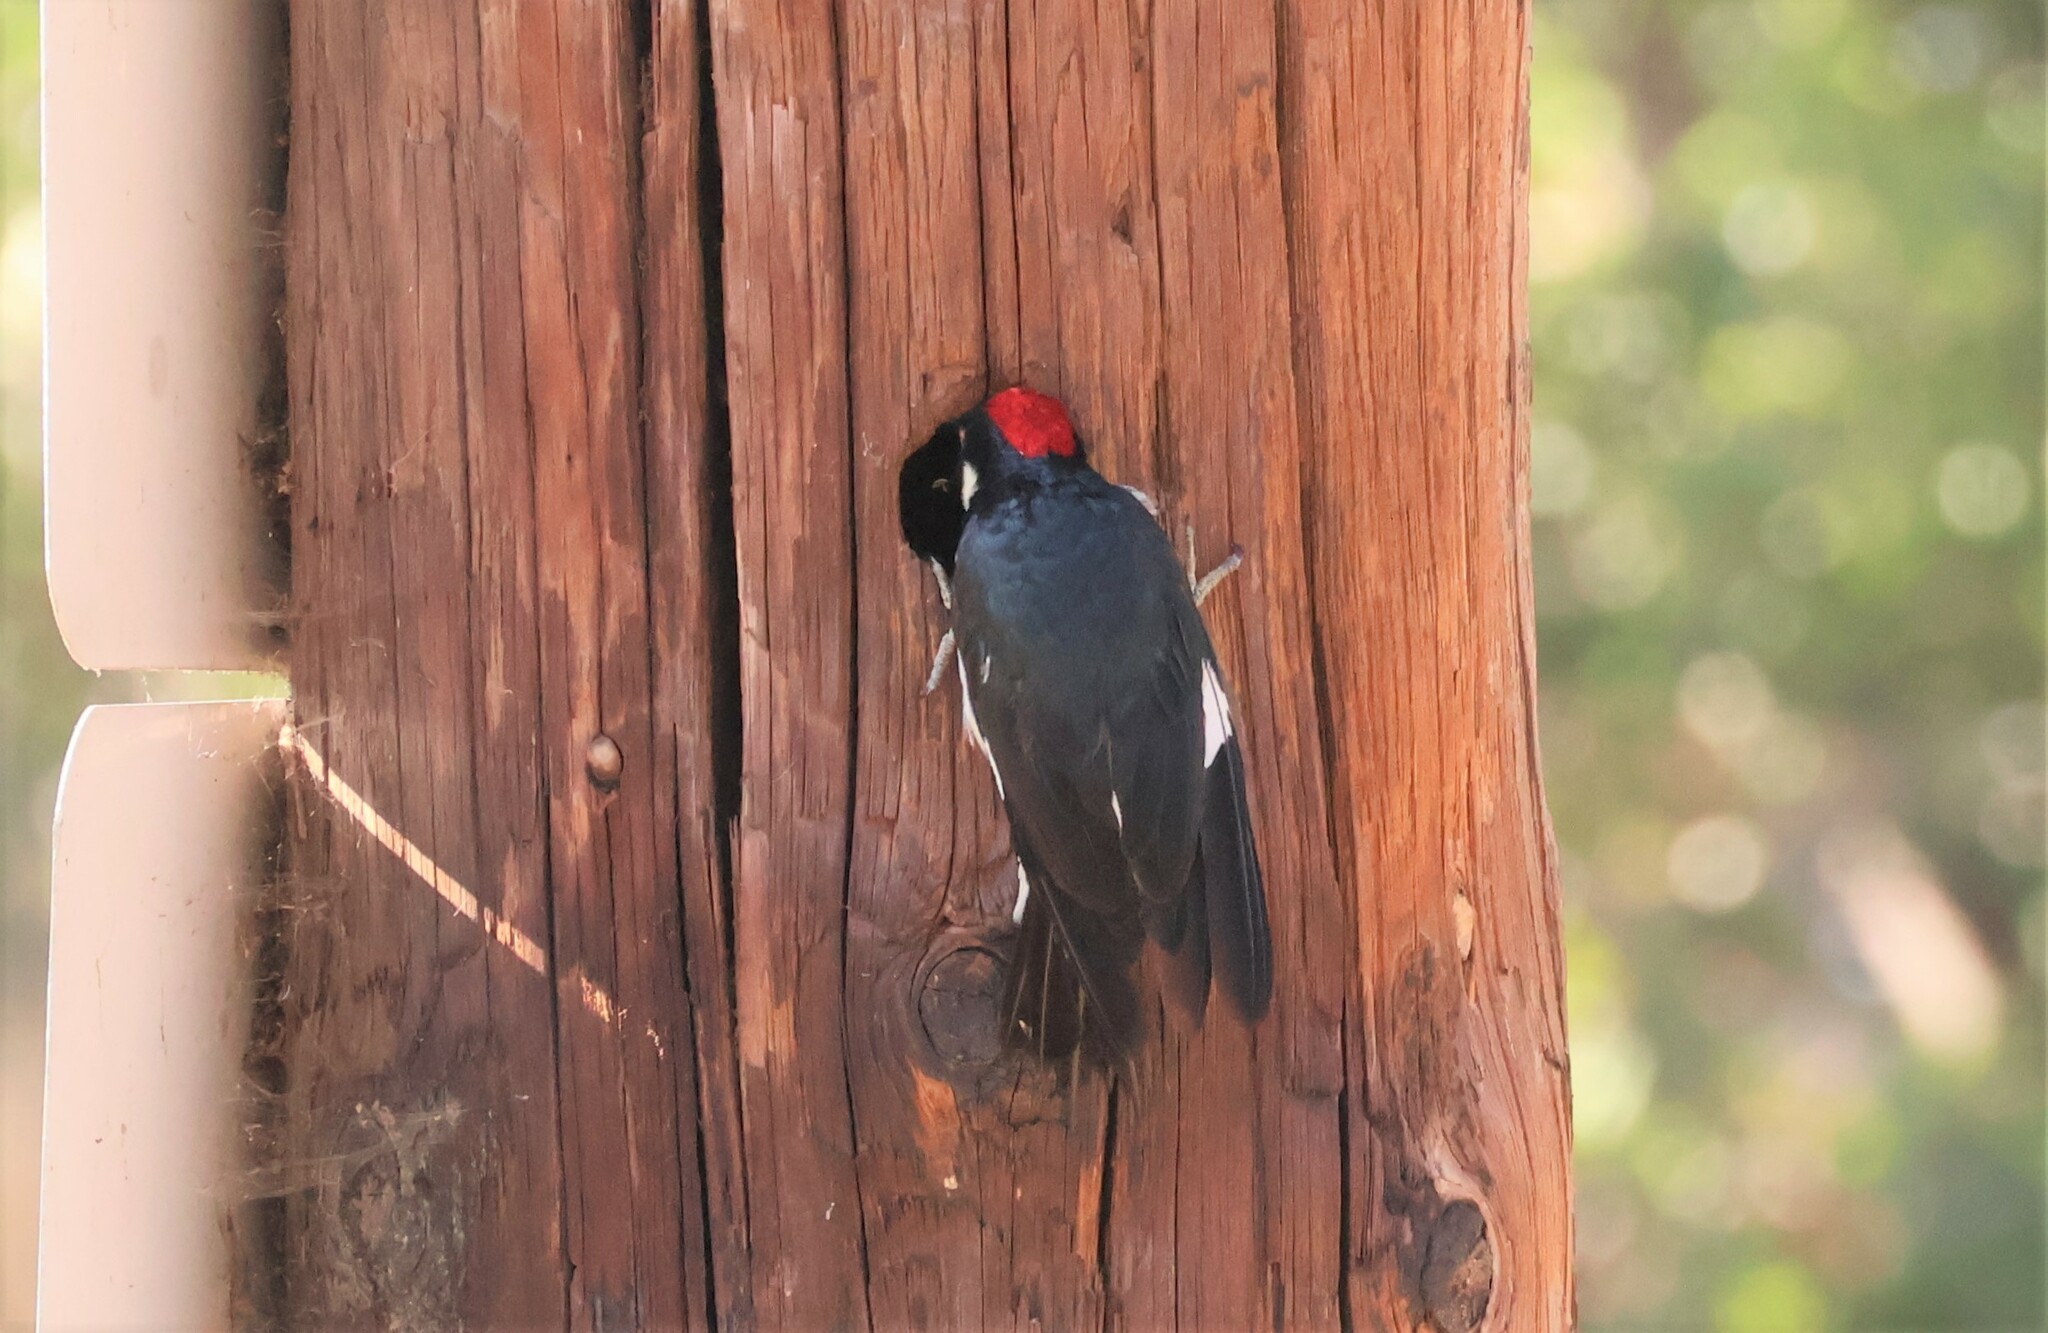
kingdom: Animalia
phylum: Chordata
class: Aves
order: Piciformes
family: Picidae
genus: Melanerpes
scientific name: Melanerpes formicivorus
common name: Acorn woodpecker
